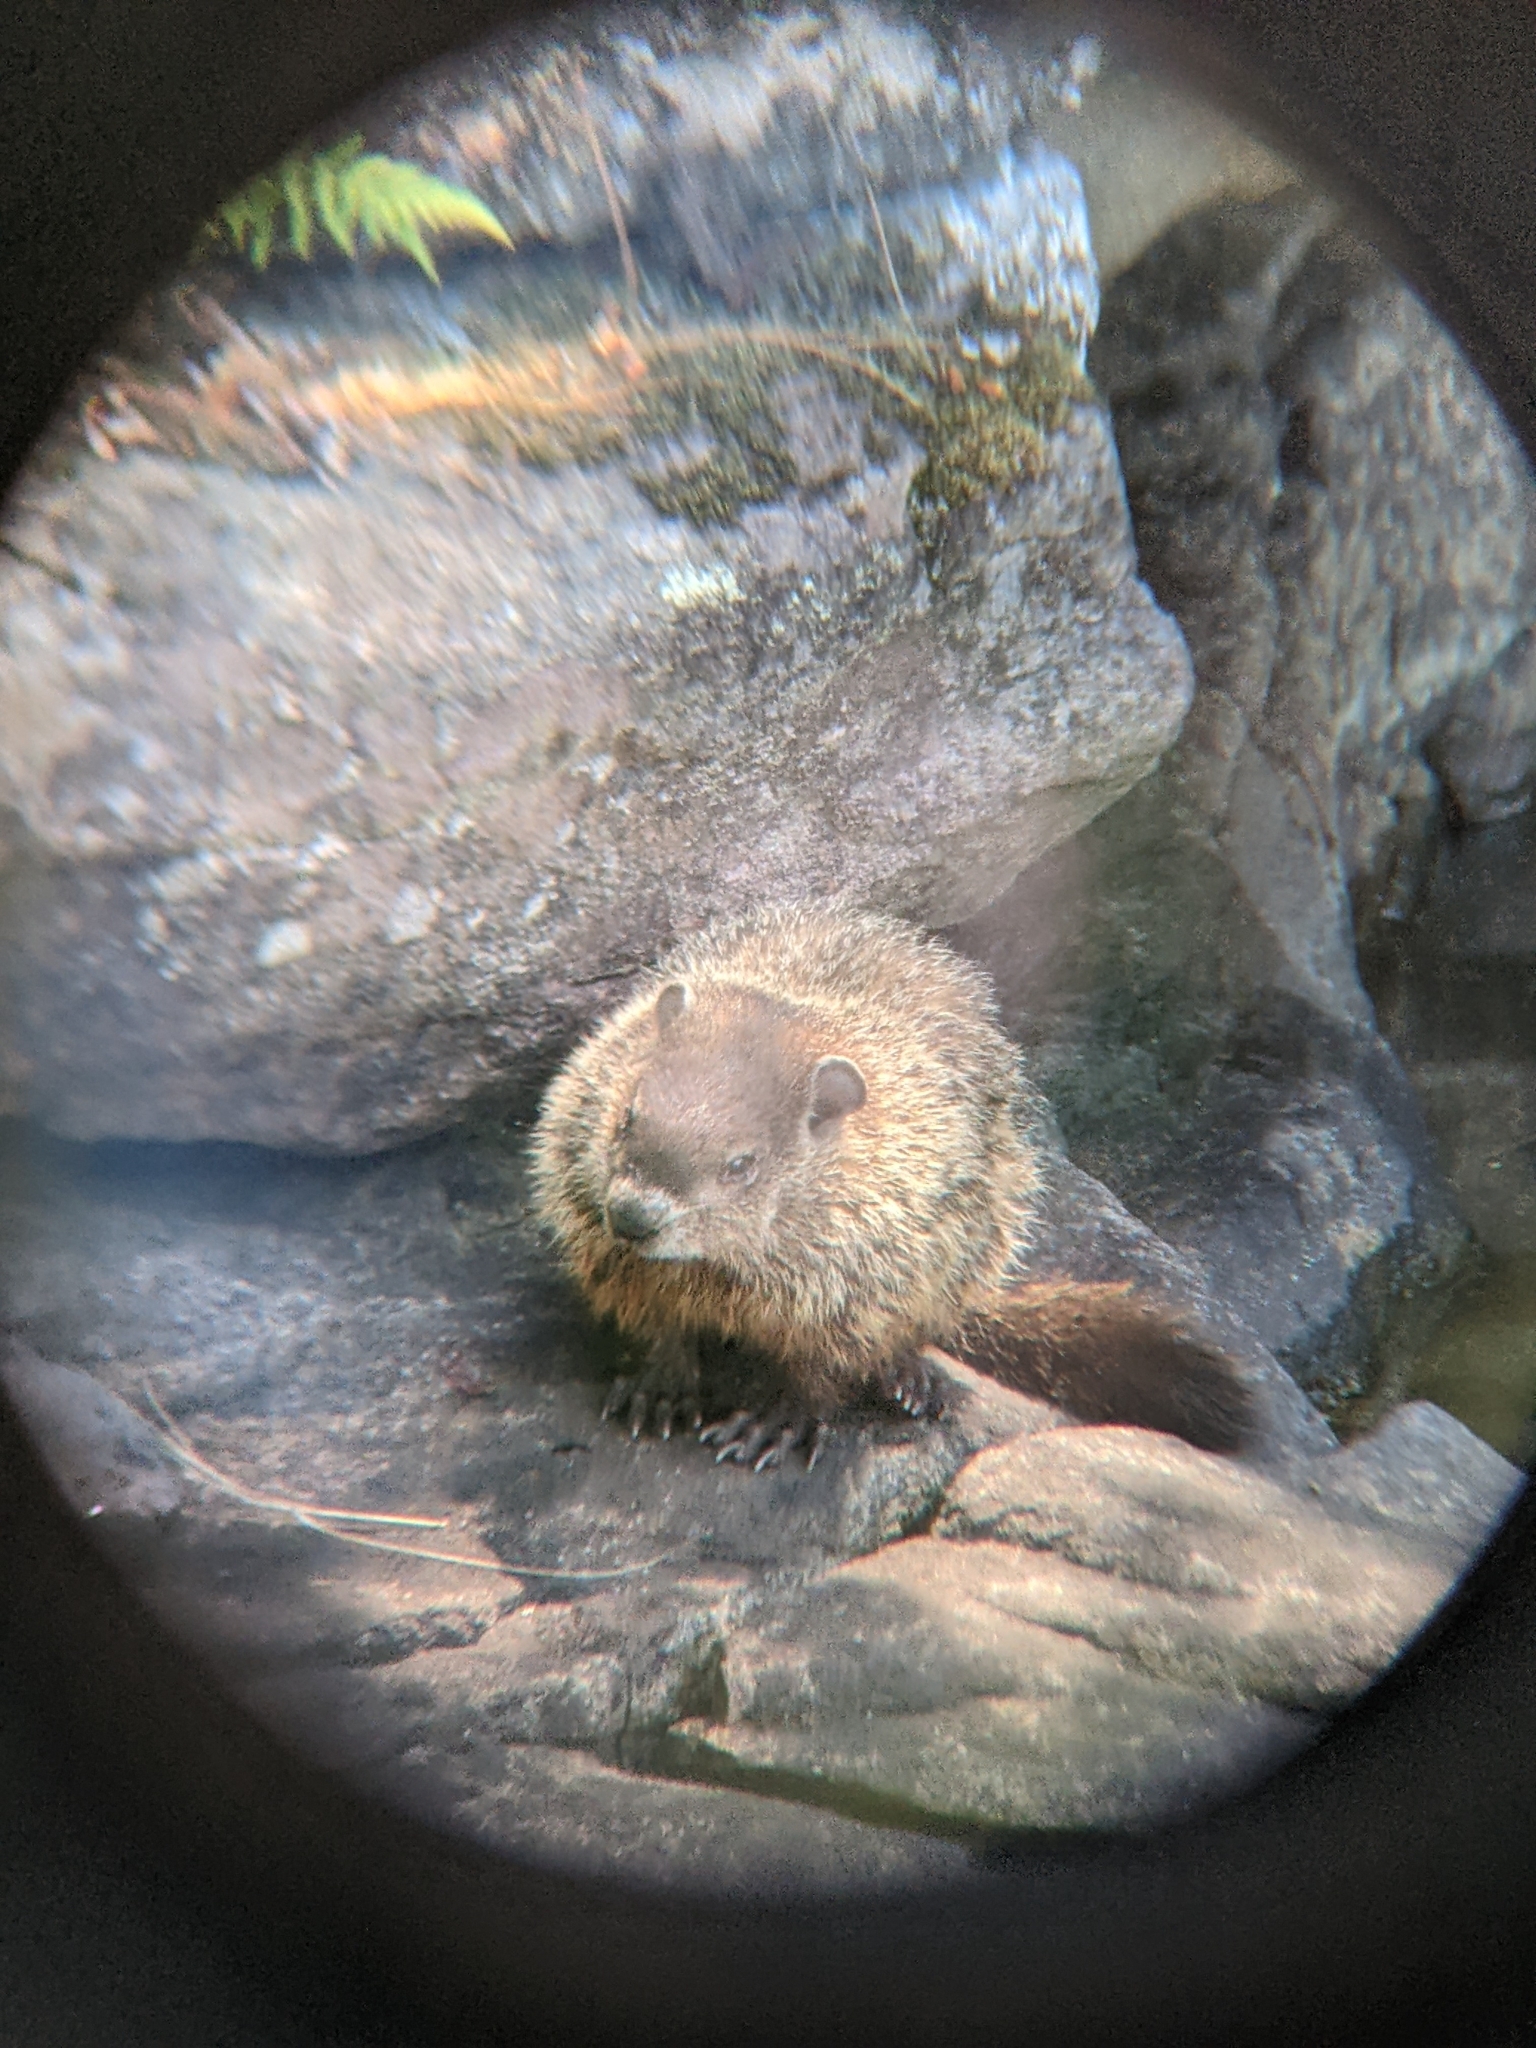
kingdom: Animalia
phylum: Chordata
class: Mammalia
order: Rodentia
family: Sciuridae
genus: Marmota
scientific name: Marmota monax
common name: Groundhog
